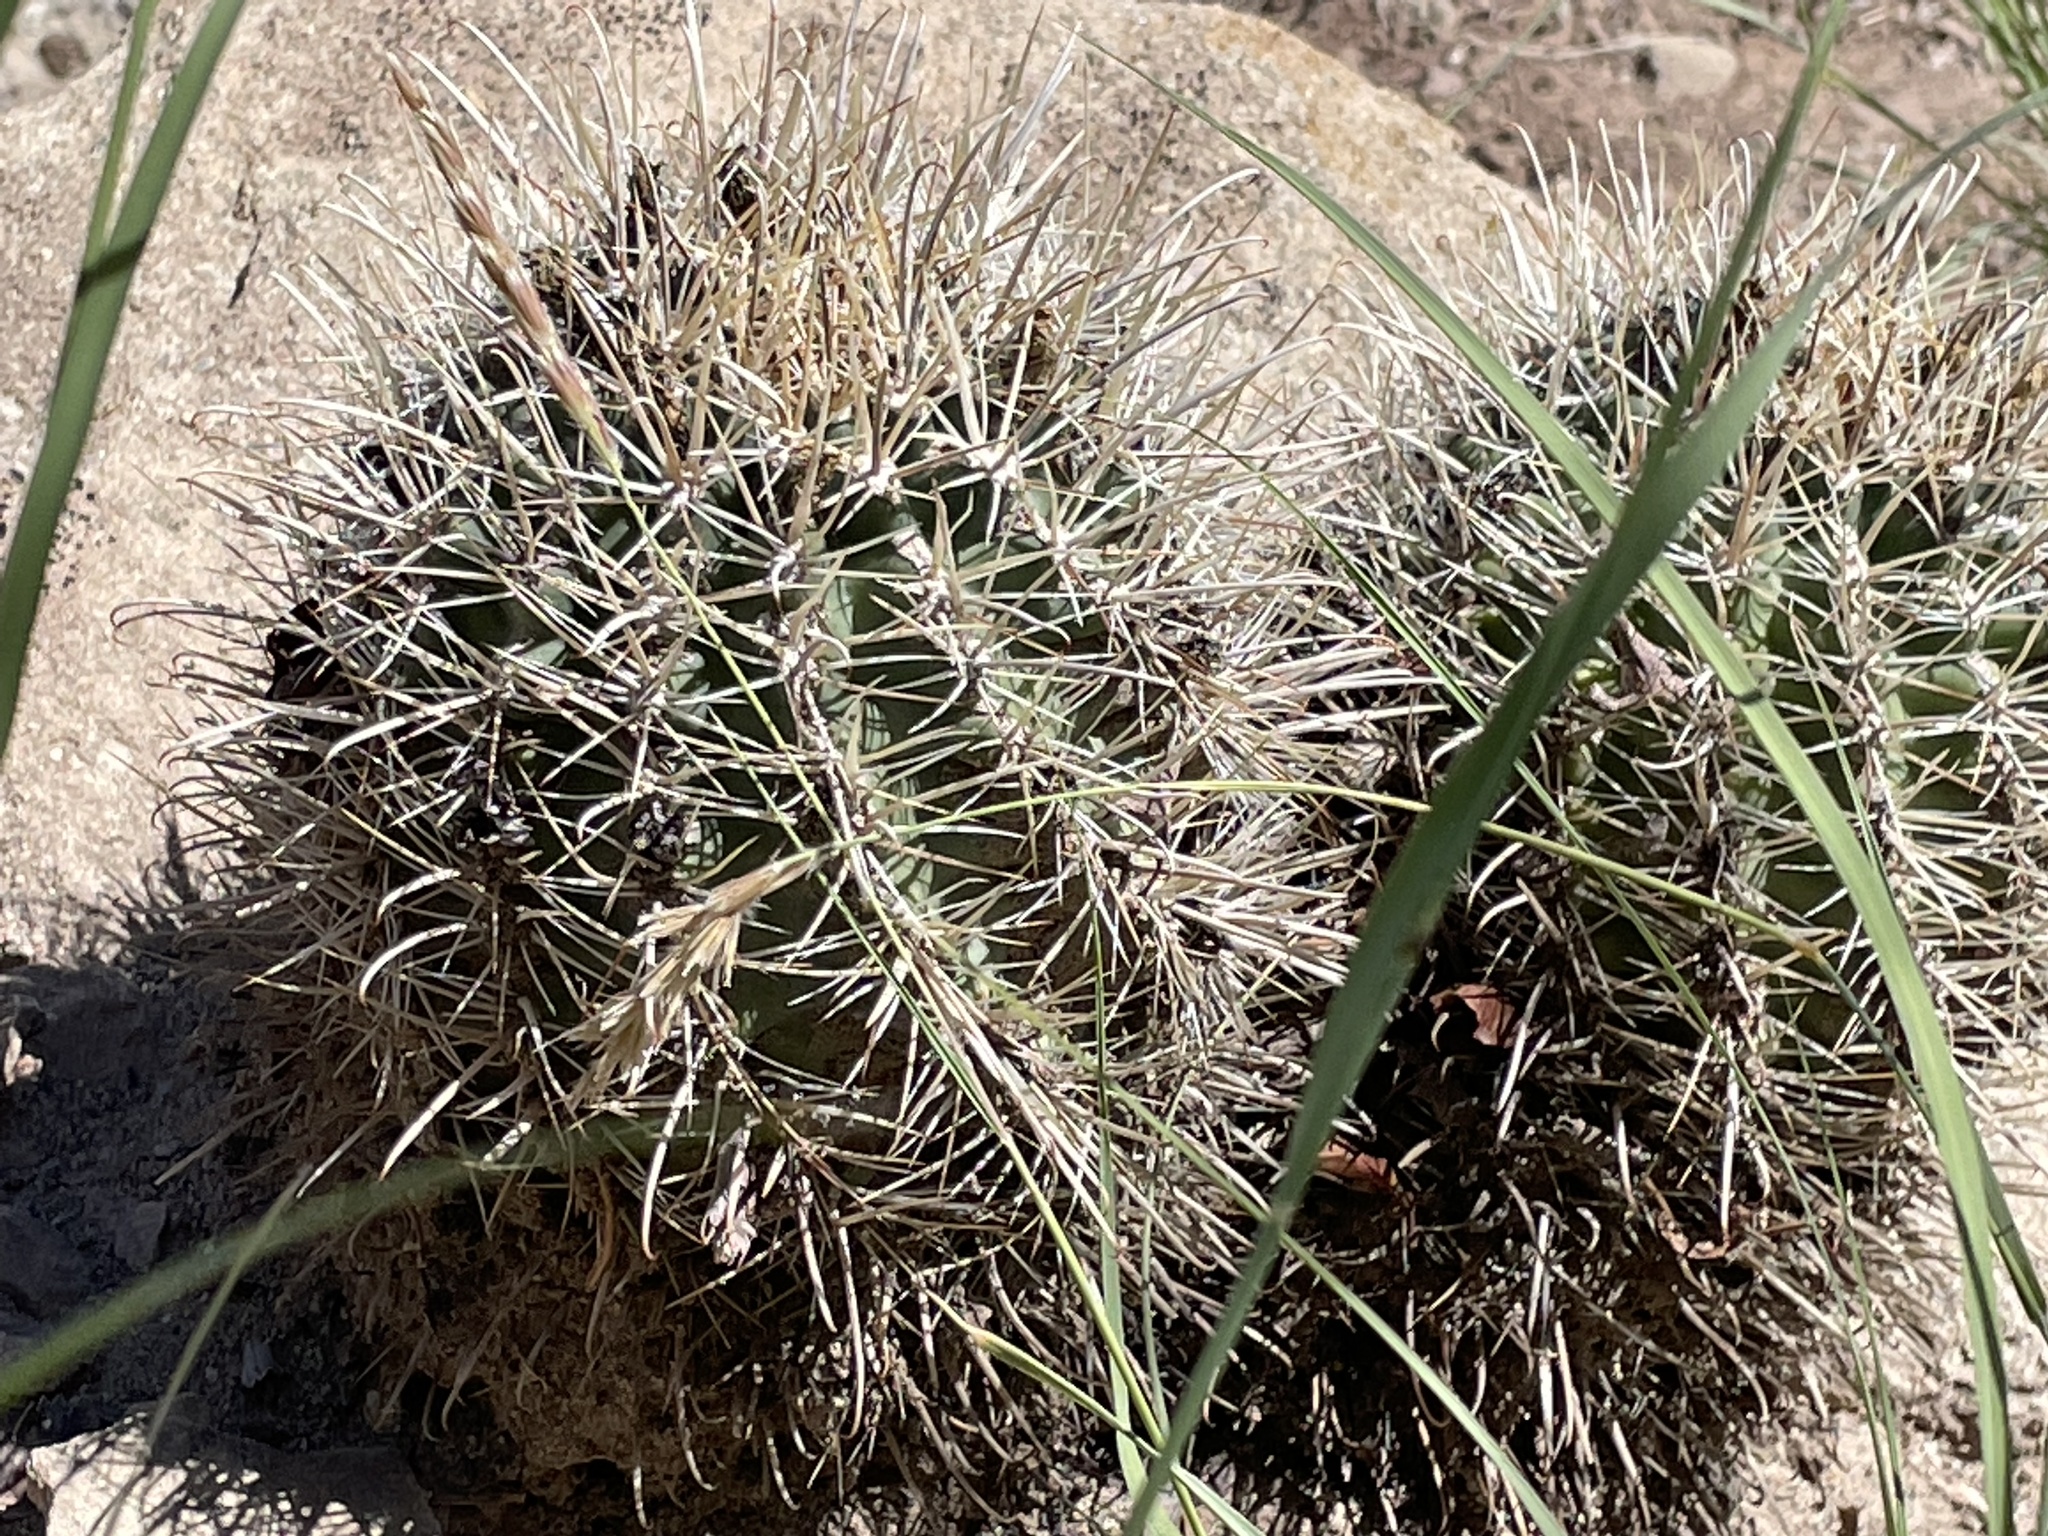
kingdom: Plantae
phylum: Tracheophyta
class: Magnoliopsida
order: Caryophyllales
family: Cactaceae
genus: Sclerocactus
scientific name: Sclerocactus parviflorus
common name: Small-flower fishhook cactus
